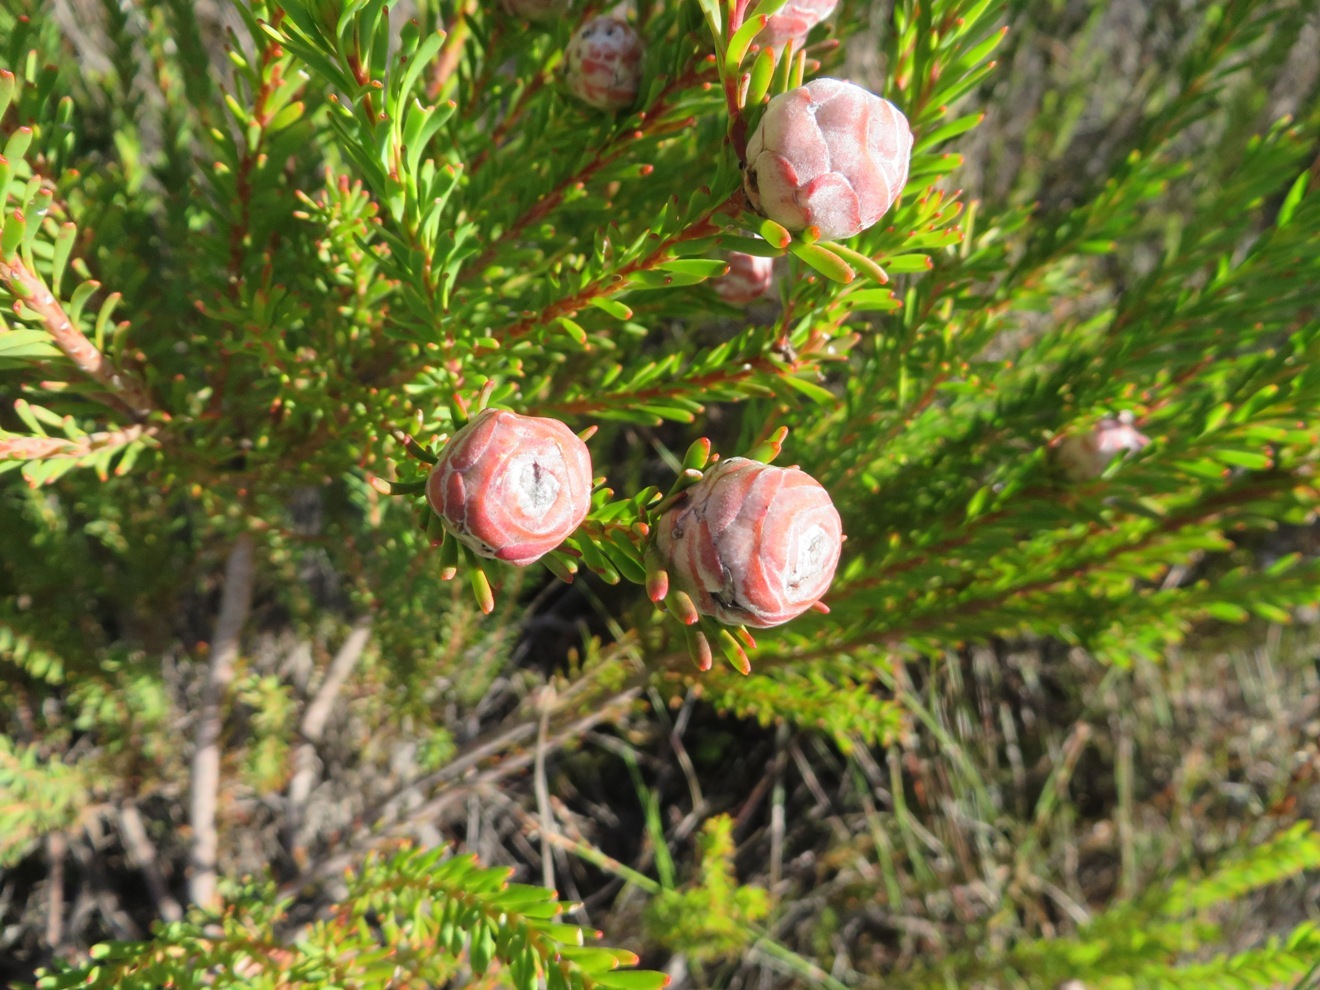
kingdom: Plantae
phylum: Tracheophyta
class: Magnoliopsida
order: Proteales
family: Proteaceae
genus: Leucadendron
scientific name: Leucadendron linifolium
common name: Line-leaf conebush
